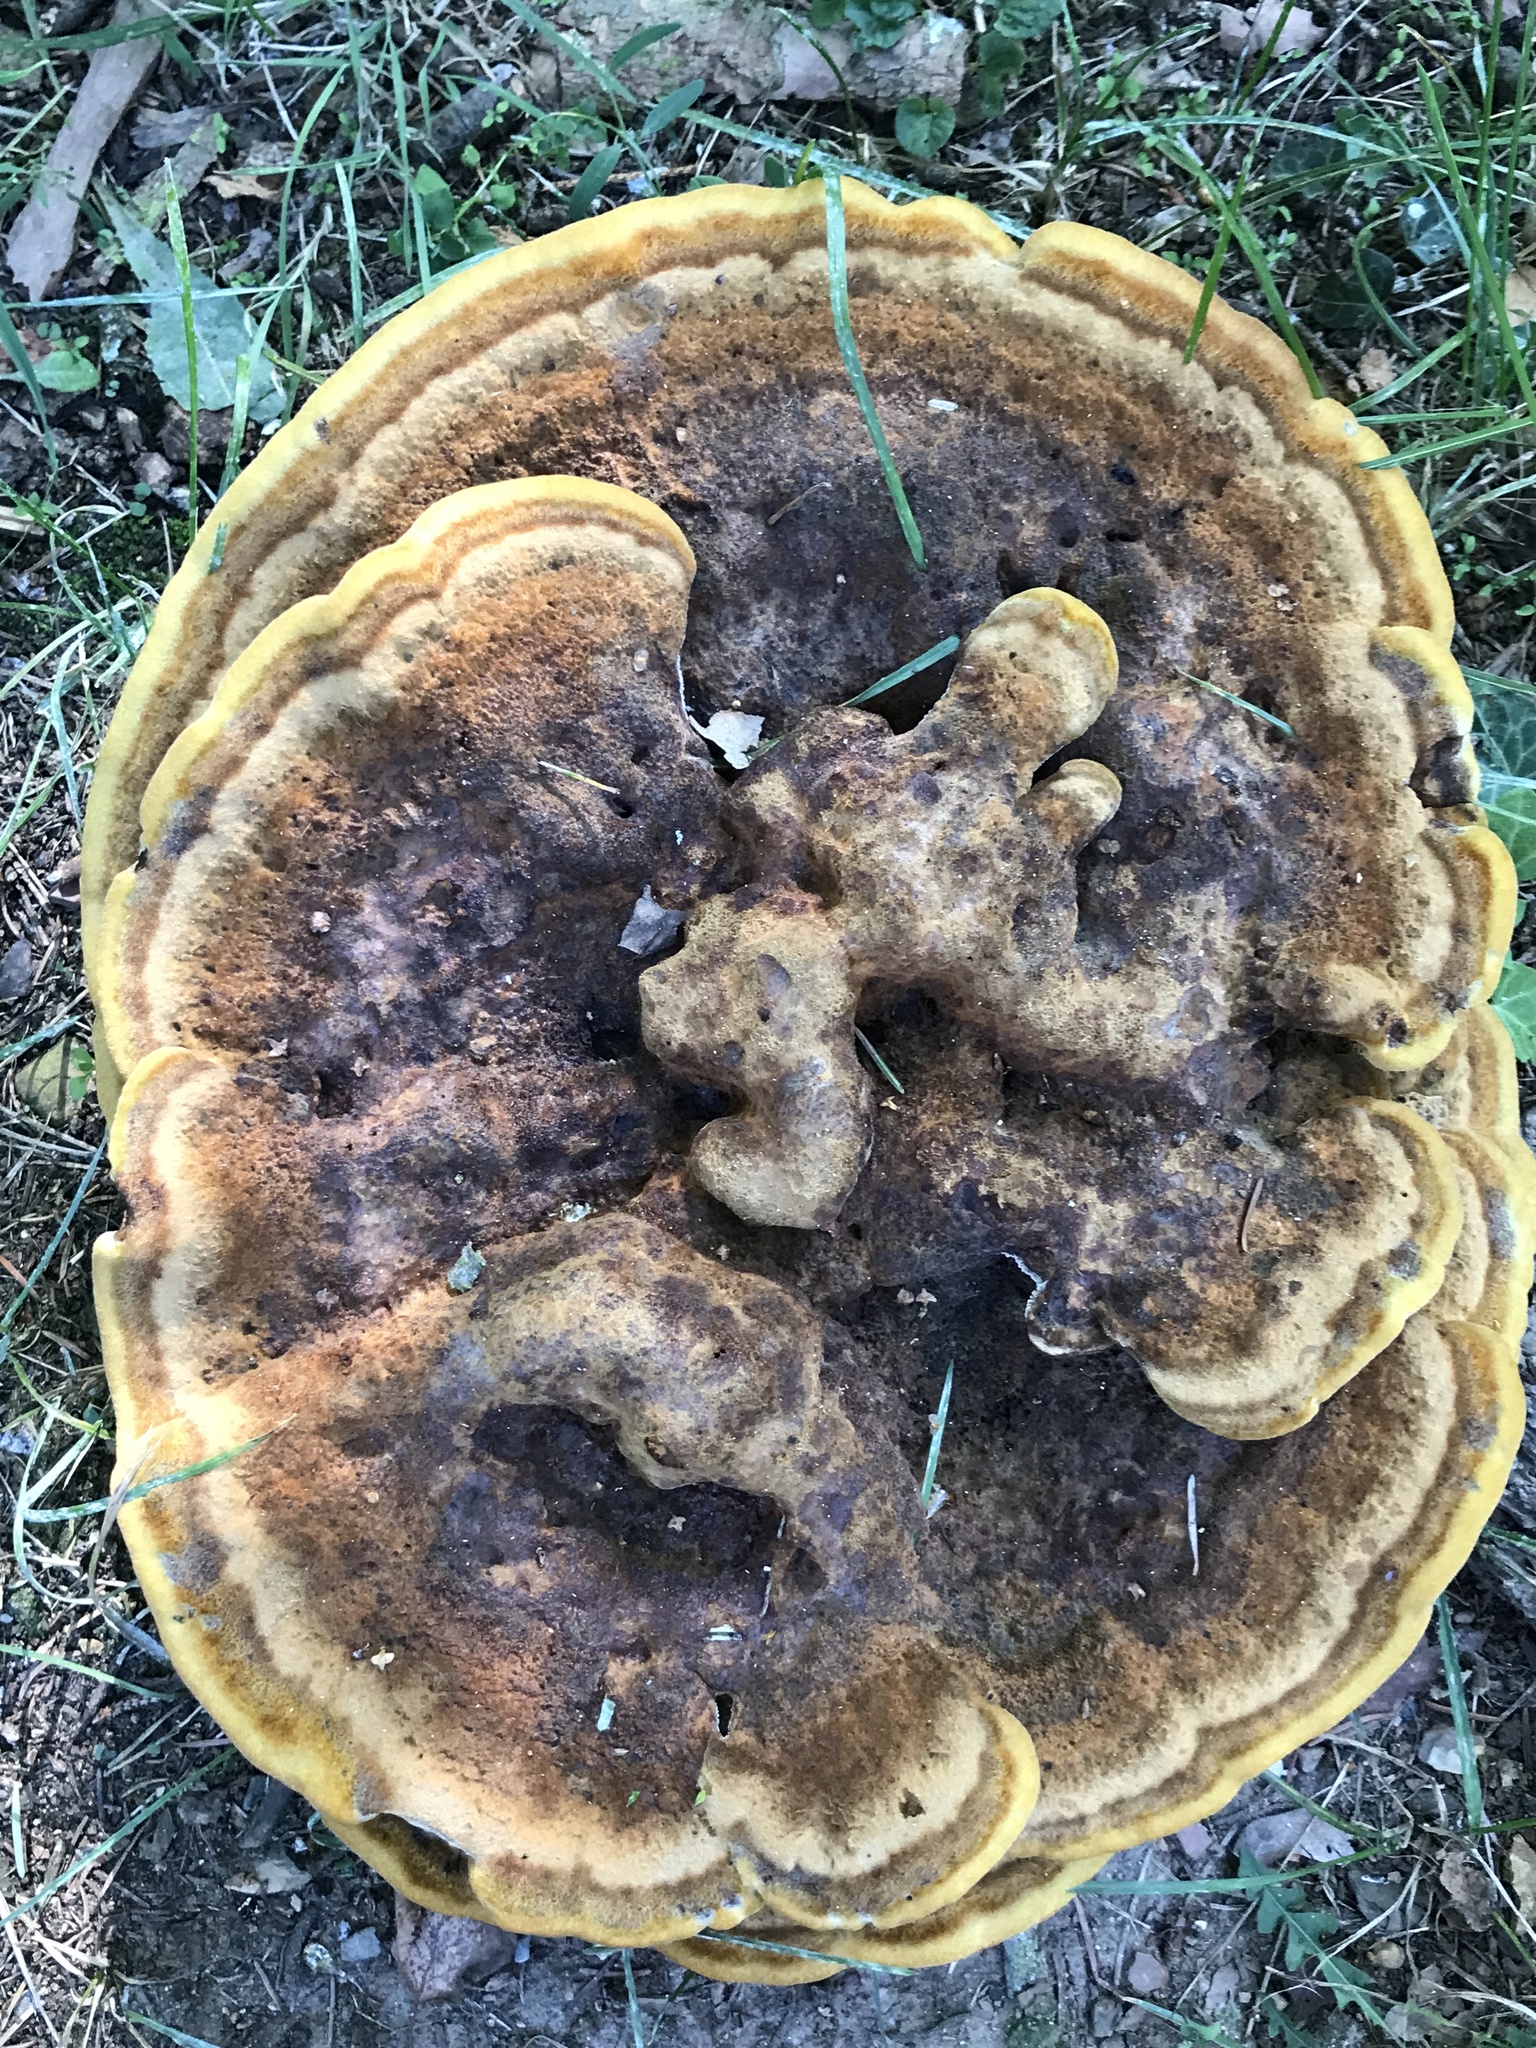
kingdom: Fungi
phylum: Basidiomycota
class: Agaricomycetes
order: Polyporales
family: Laetiporaceae
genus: Phaeolus
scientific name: Phaeolus schweinitzii
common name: Dyer's mazegill
